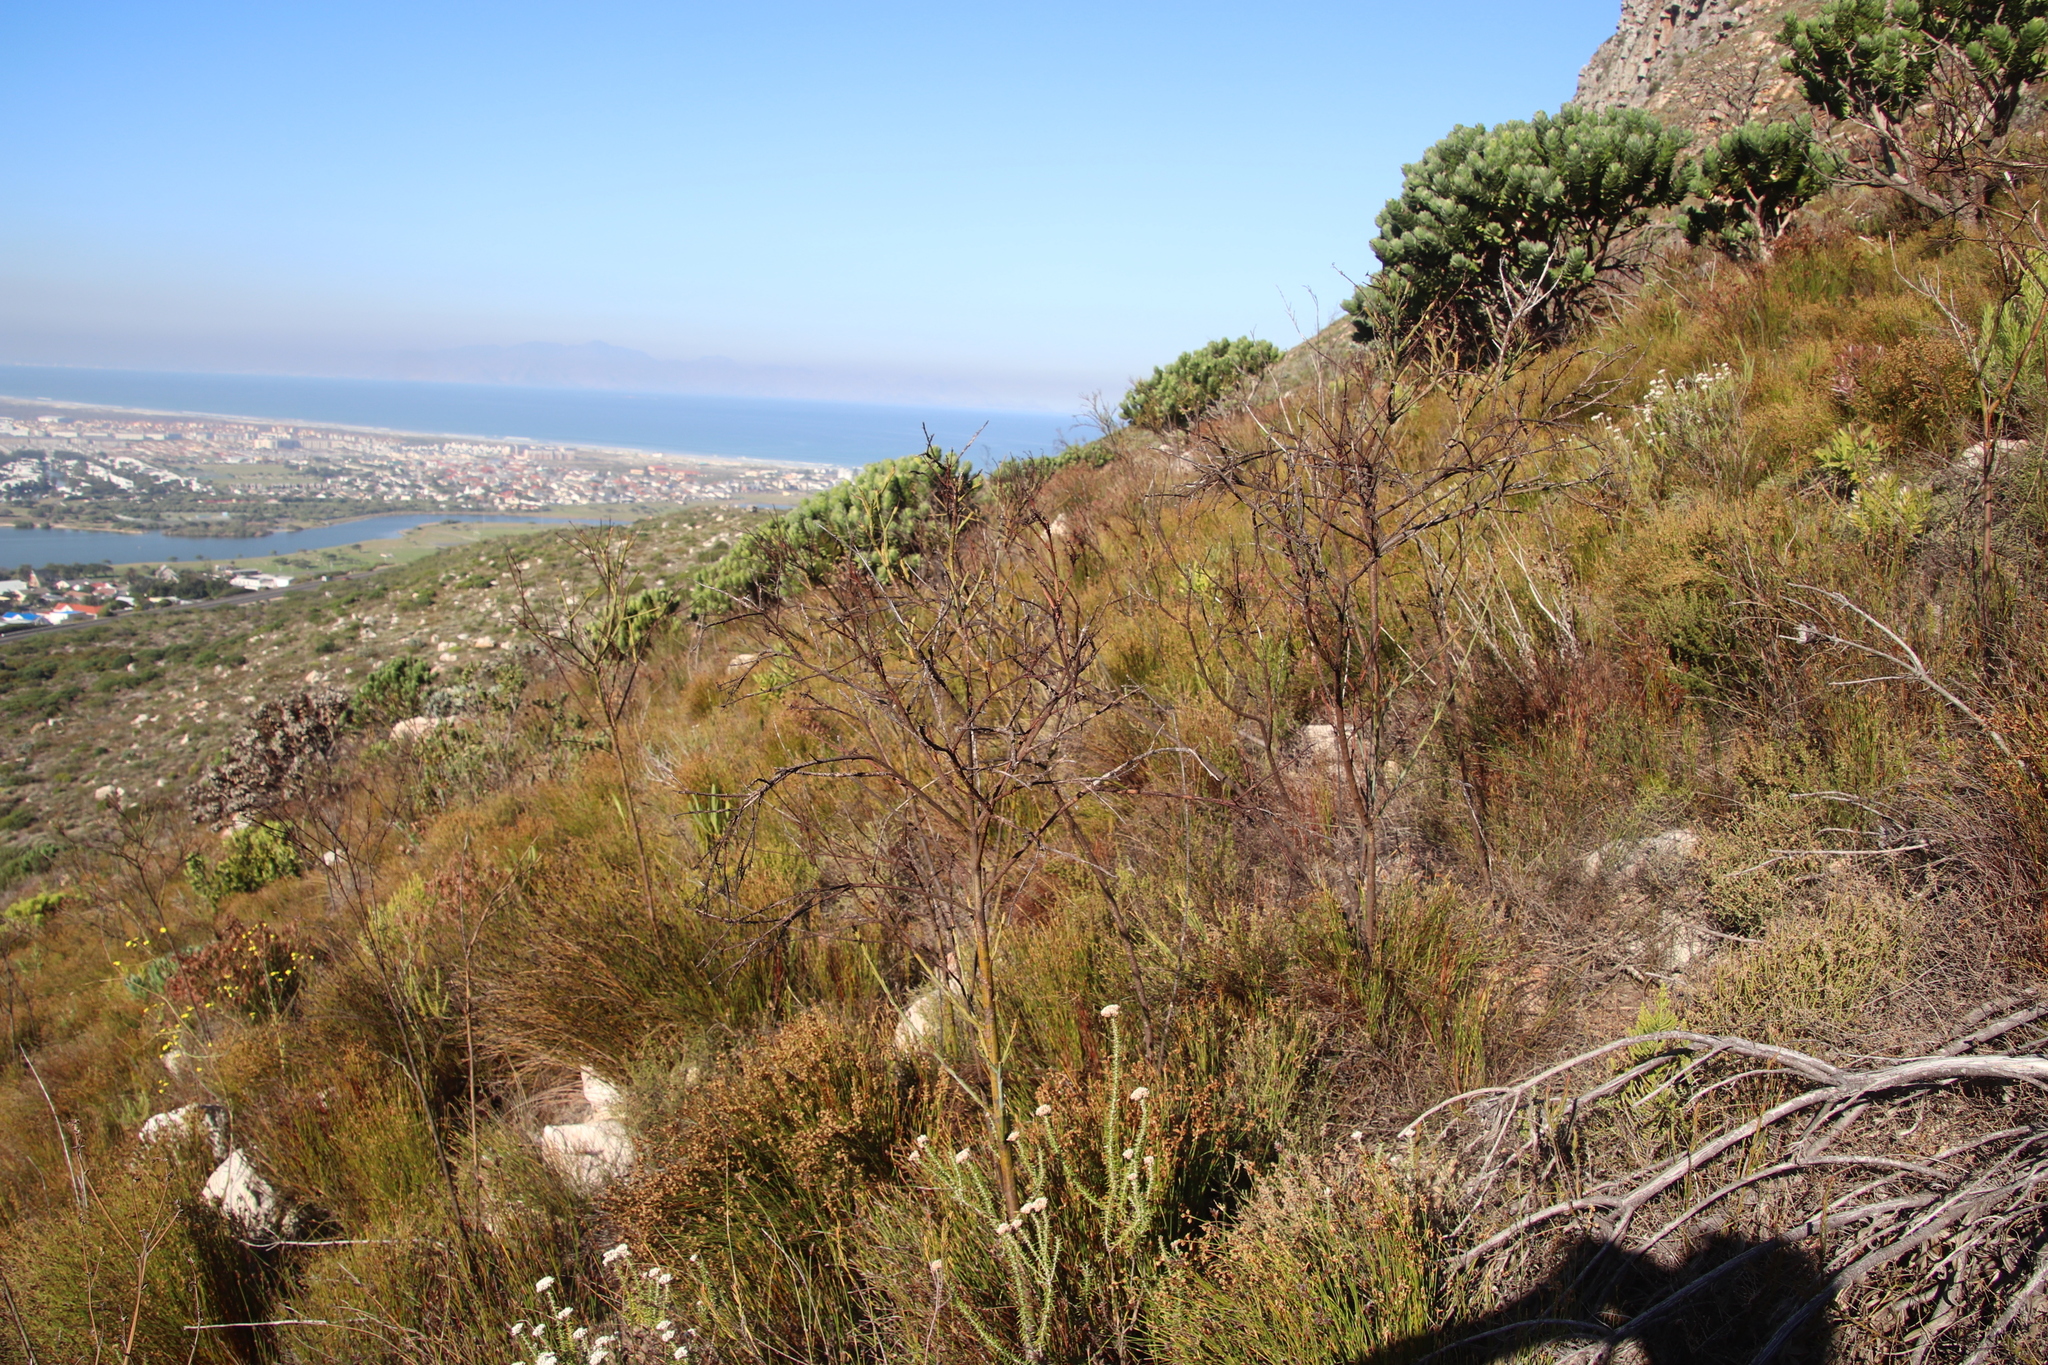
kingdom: Plantae
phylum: Tracheophyta
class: Magnoliopsida
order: Santalales
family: Thesiaceae
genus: Thesium
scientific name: Thesium strictum
